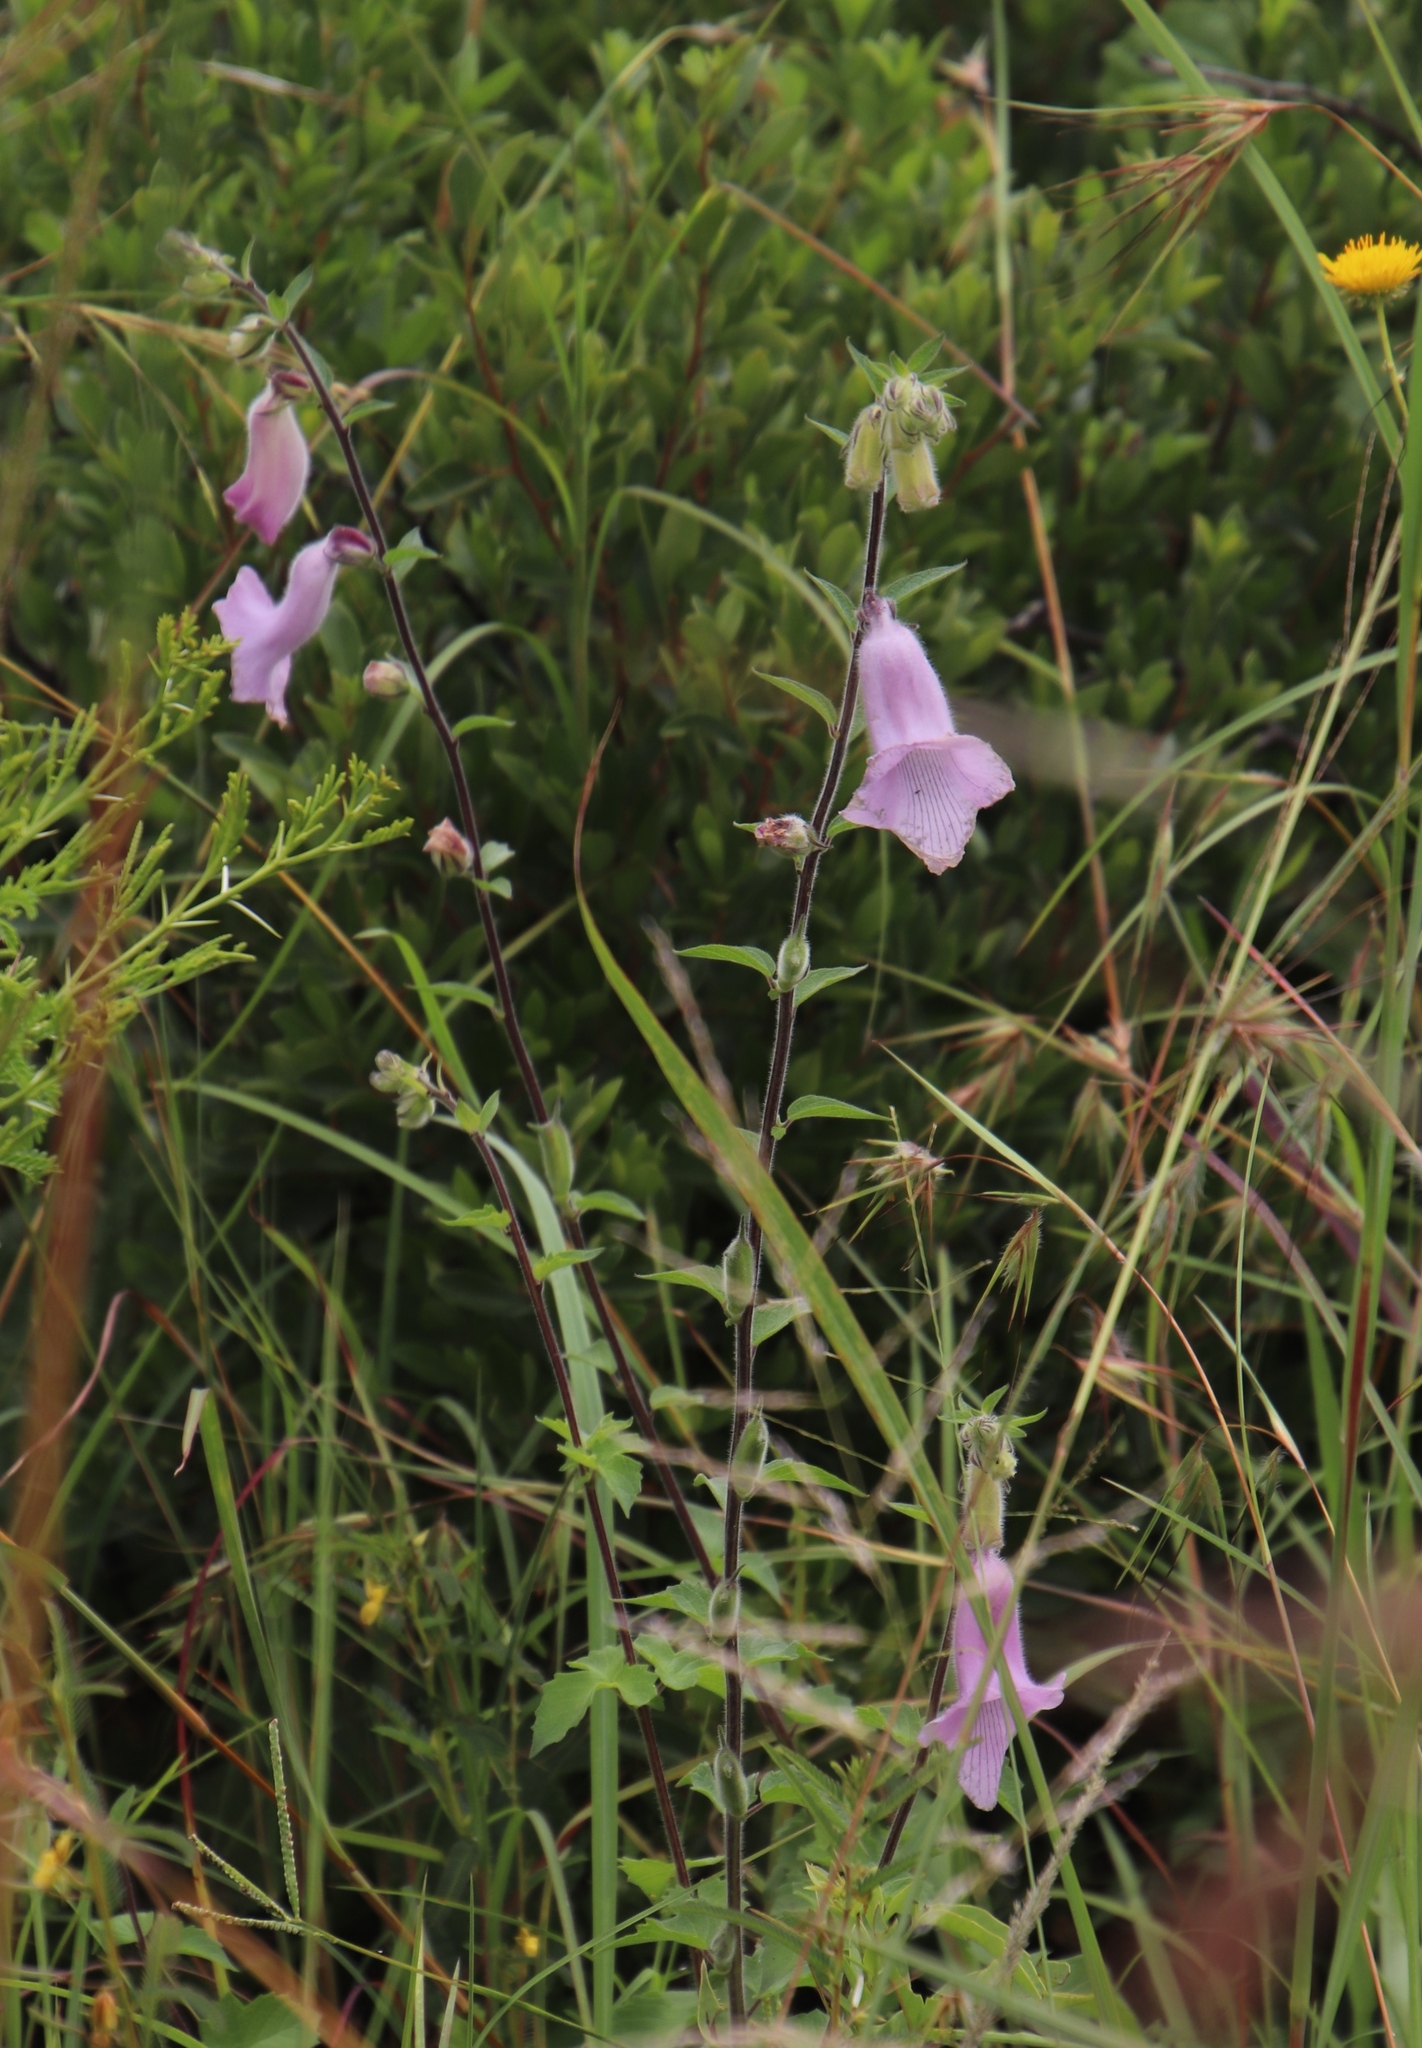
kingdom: Plantae
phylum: Tracheophyta
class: Magnoliopsida
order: Lamiales
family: Pedaliaceae
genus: Sesamum
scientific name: Sesamum trilobum
